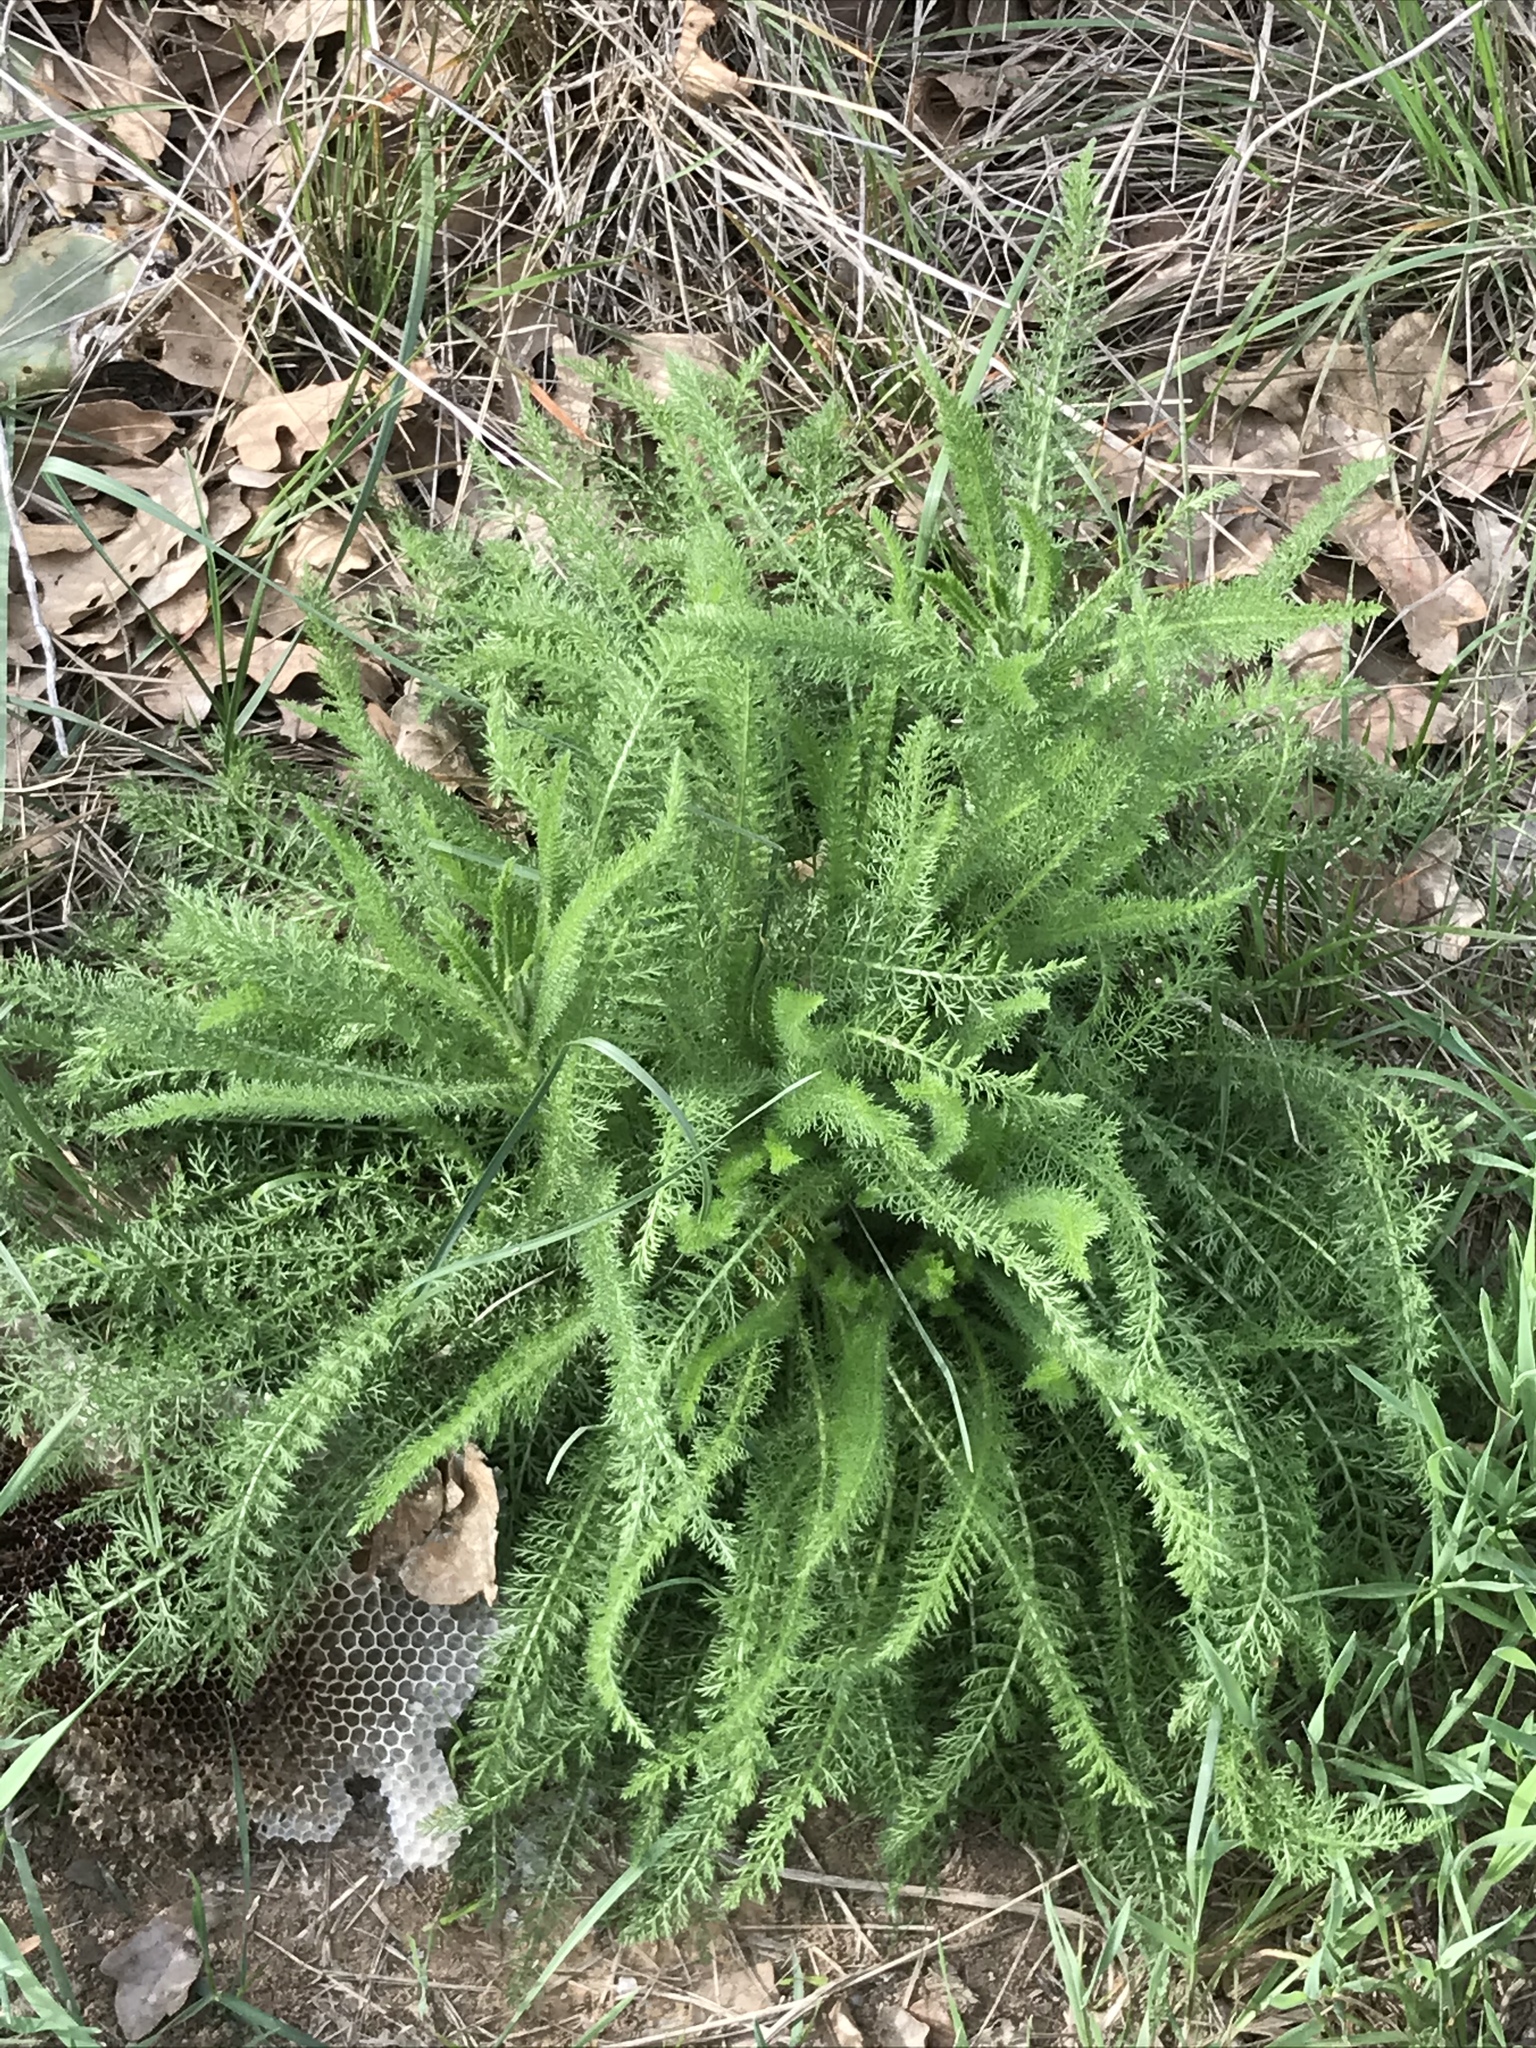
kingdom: Plantae
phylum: Tracheophyta
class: Magnoliopsida
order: Asterales
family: Asteraceae
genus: Achillea
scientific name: Achillea millefolium
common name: Yarrow
